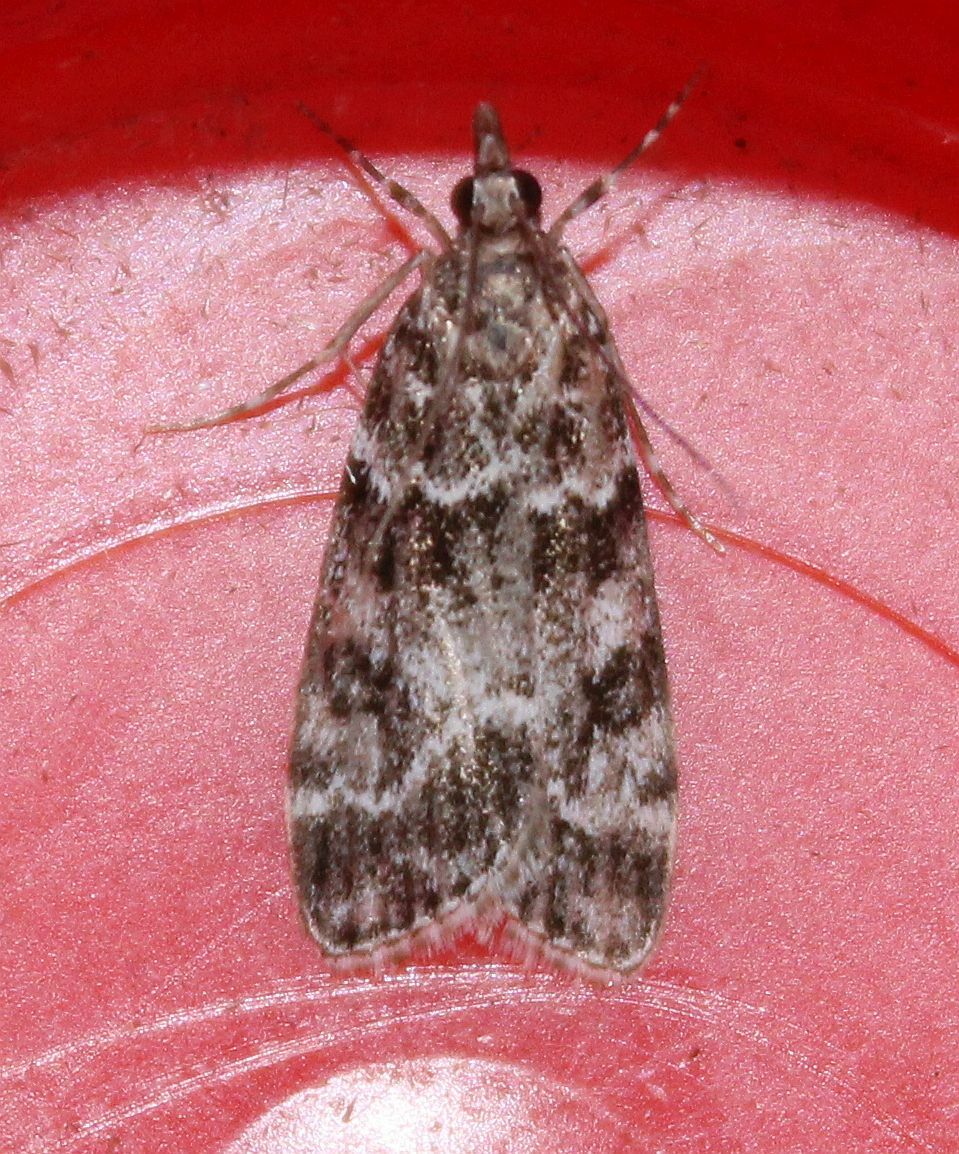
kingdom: Animalia
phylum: Arthropoda
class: Insecta
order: Lepidoptera
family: Crambidae
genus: Eudonia
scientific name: Eudonia mercurella
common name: Small grey
